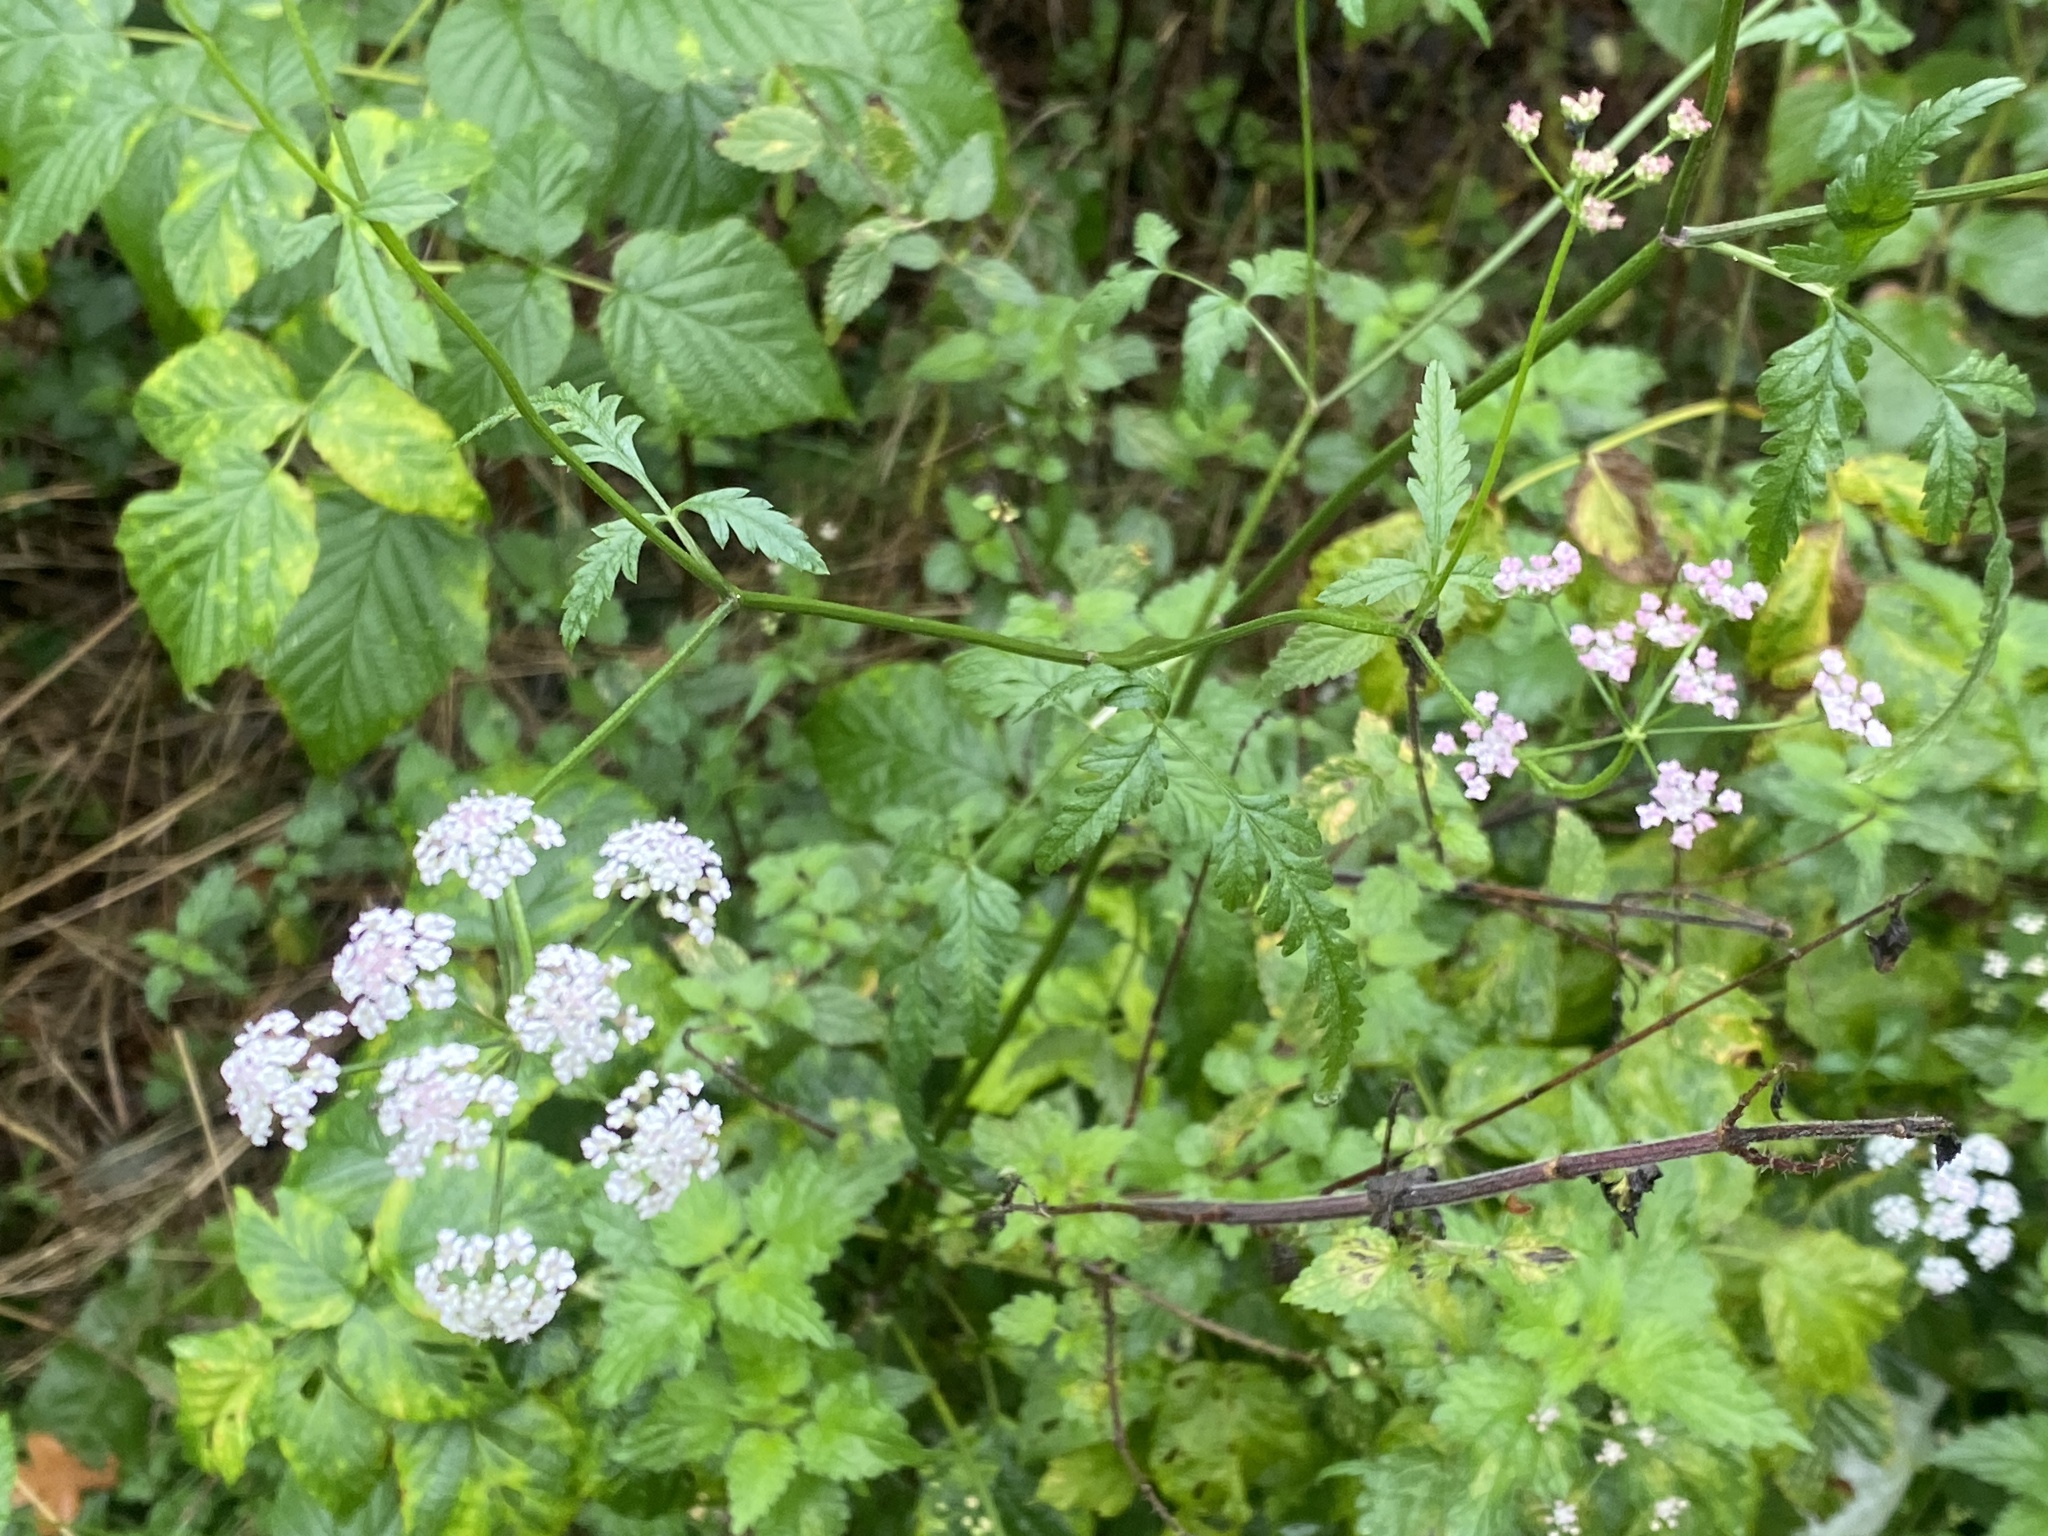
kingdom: Plantae
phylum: Tracheophyta
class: Magnoliopsida
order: Apiales
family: Apiaceae
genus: Torilis
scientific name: Torilis japonica
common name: Upright hedge-parsley
